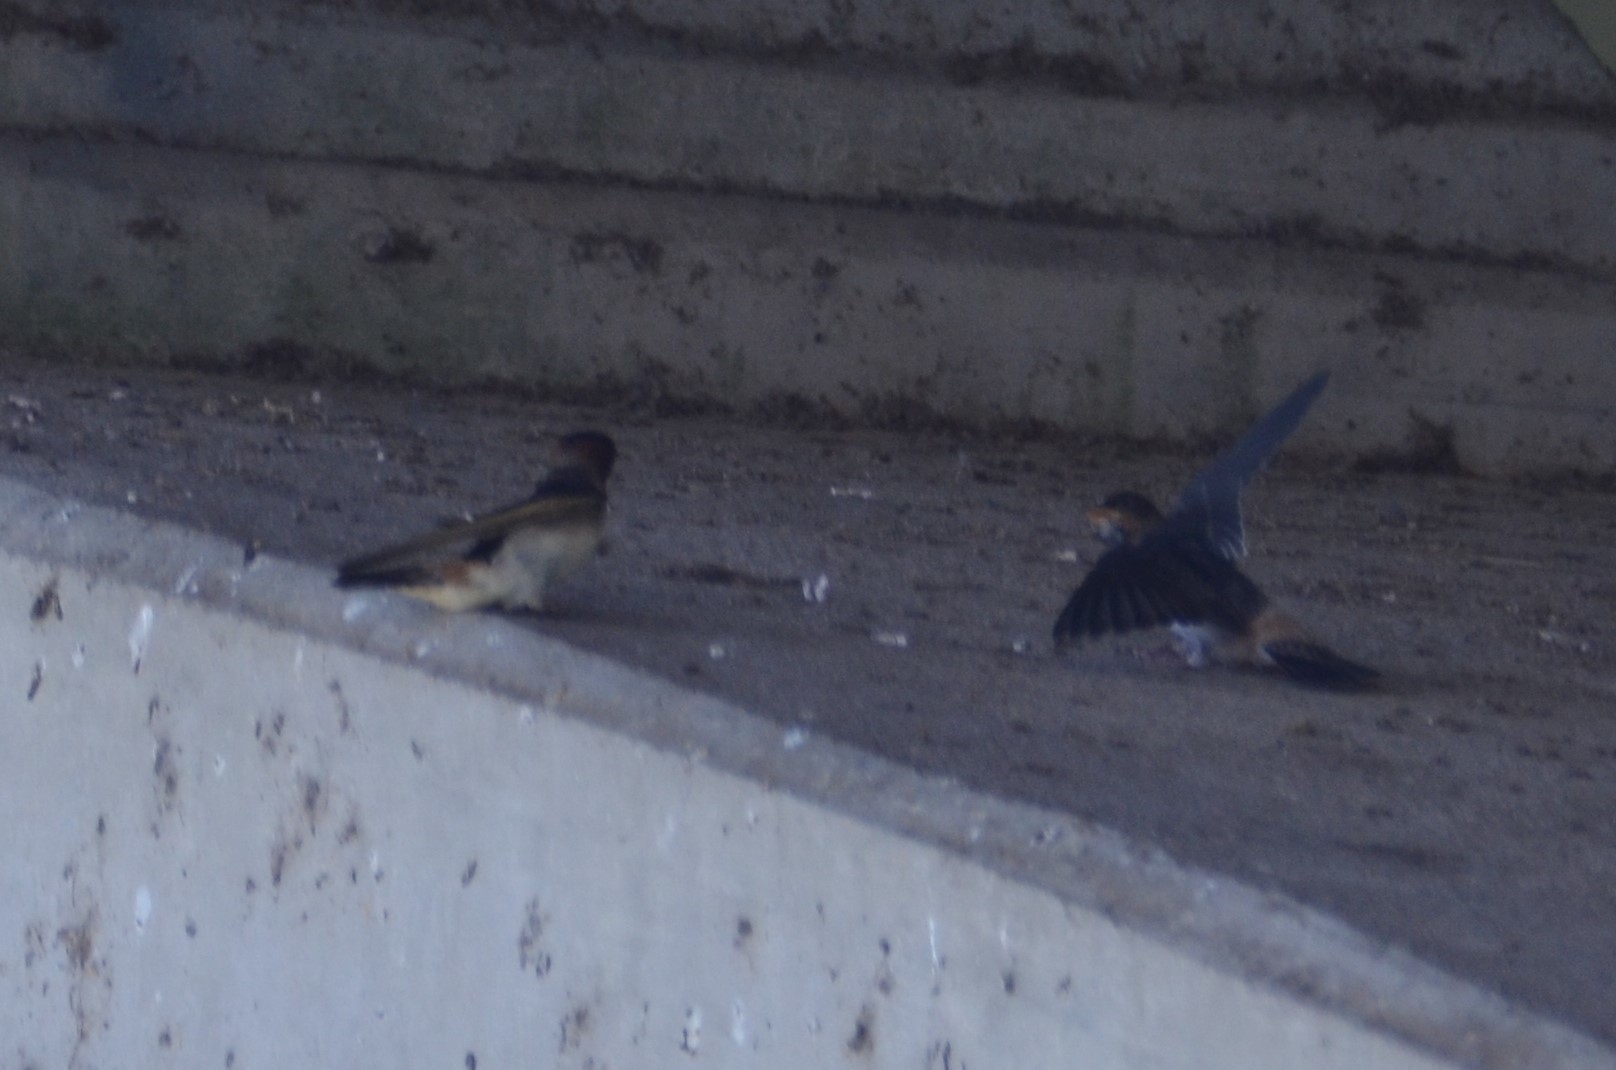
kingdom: Animalia
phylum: Chordata
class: Aves
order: Passeriformes
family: Hirundinidae
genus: Petrochelidon
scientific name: Petrochelidon pyrrhonota
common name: American cliff swallow
